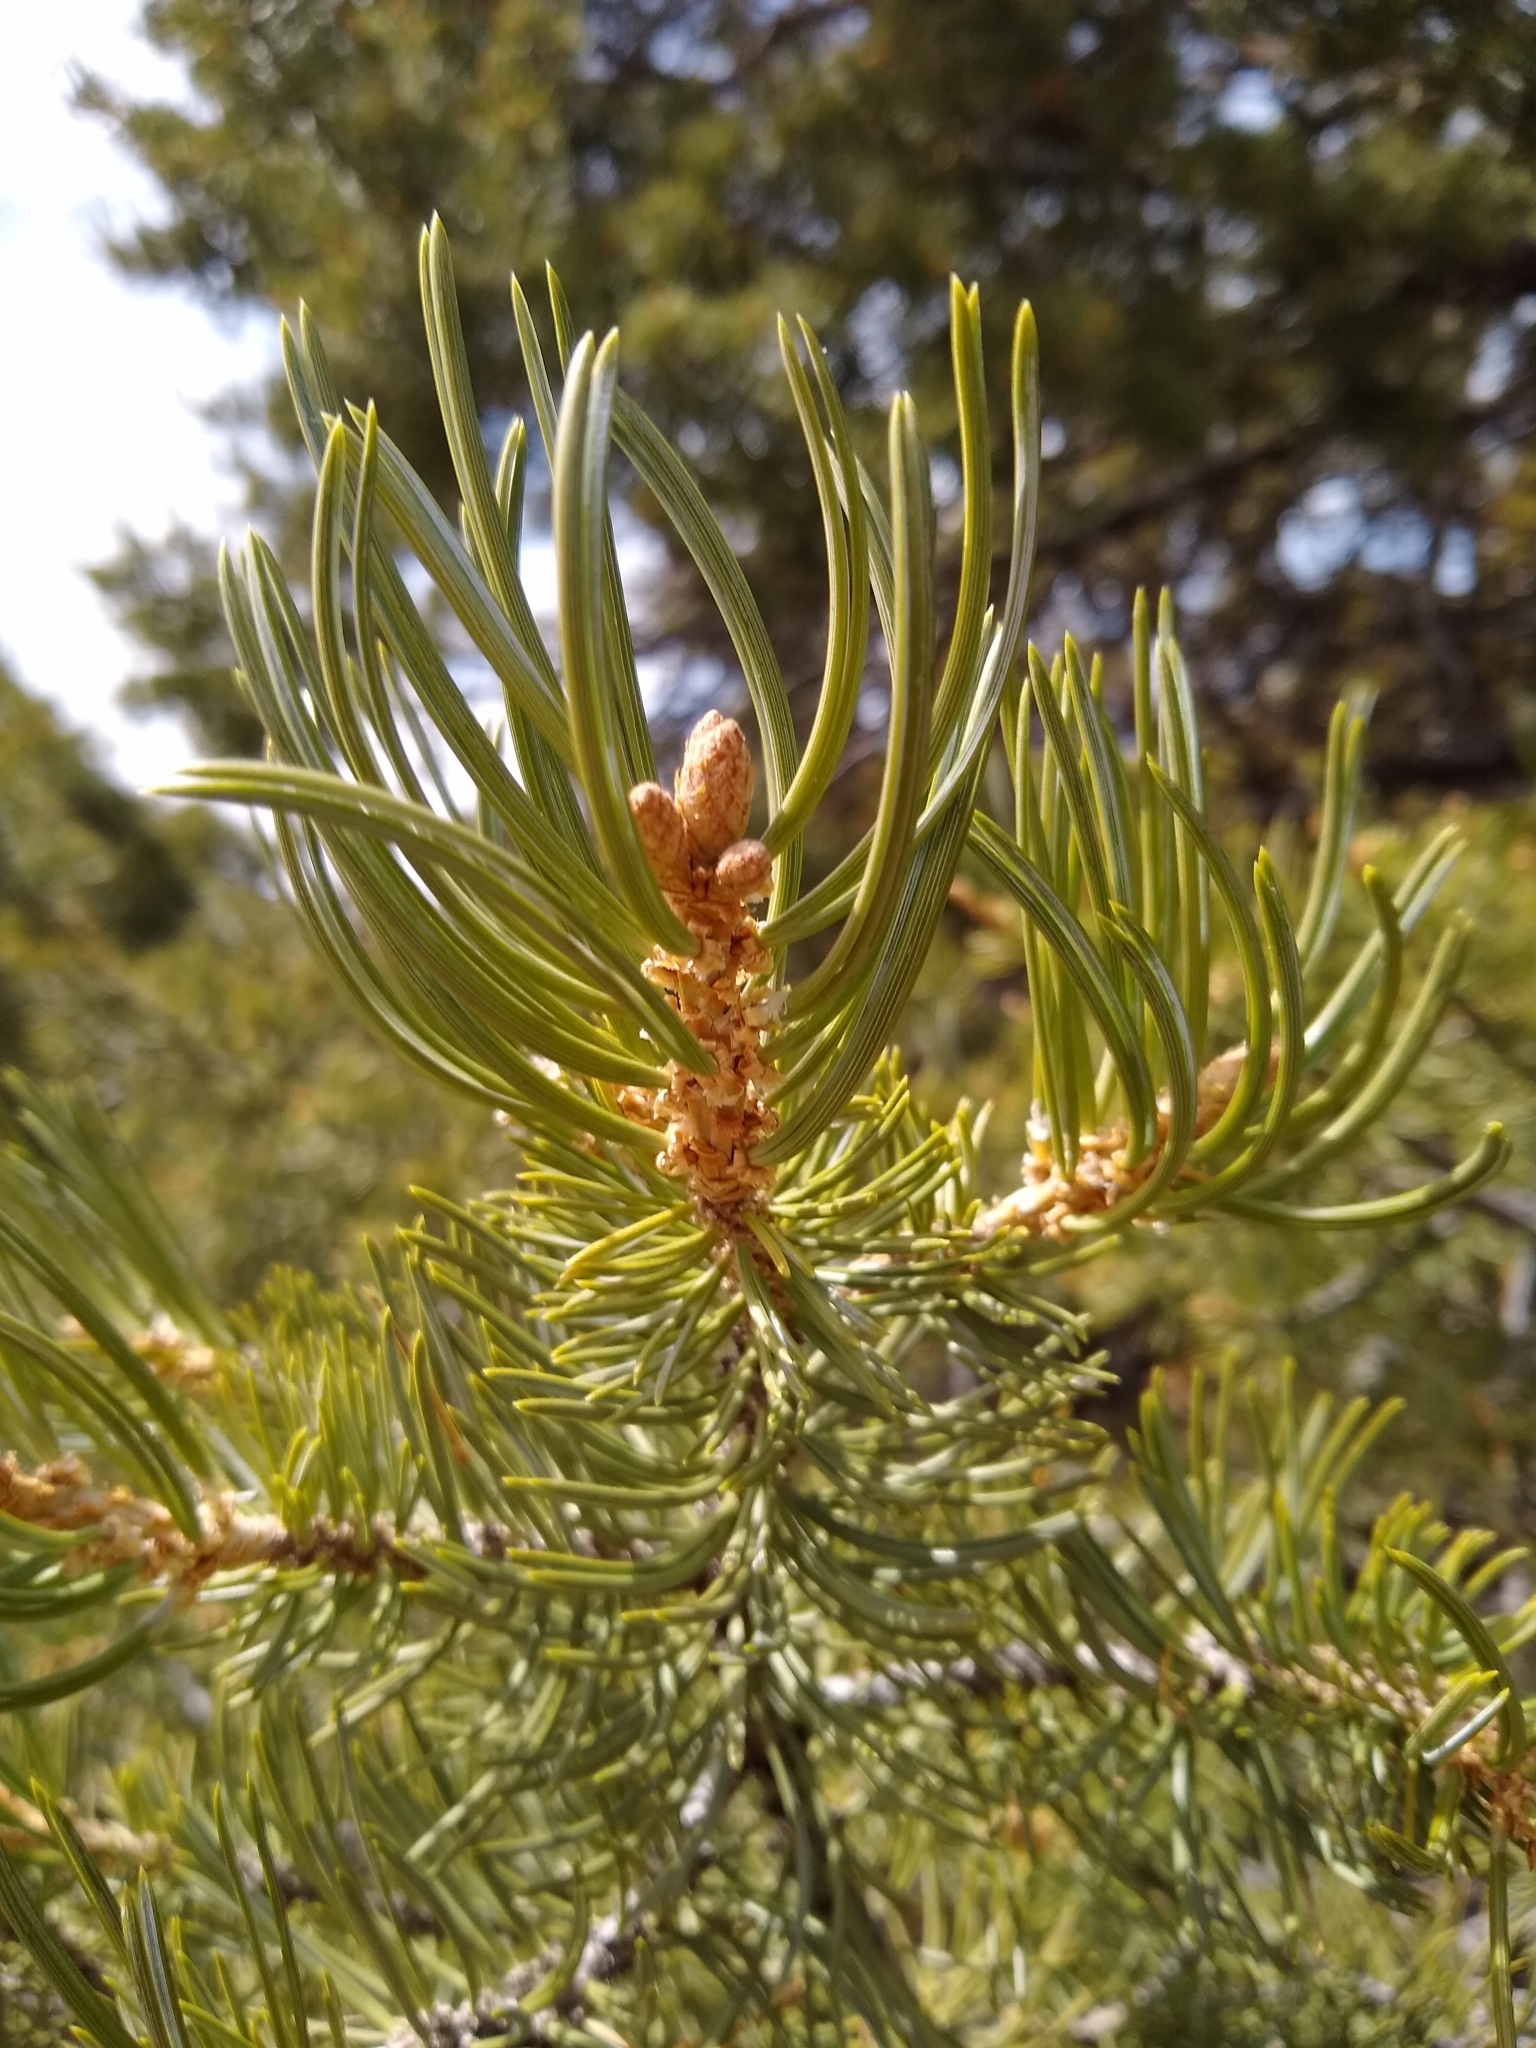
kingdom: Plantae
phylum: Tracheophyta
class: Pinopsida
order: Pinales
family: Pinaceae
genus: Pinus
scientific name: Pinus edulis
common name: Colorado pinyon
